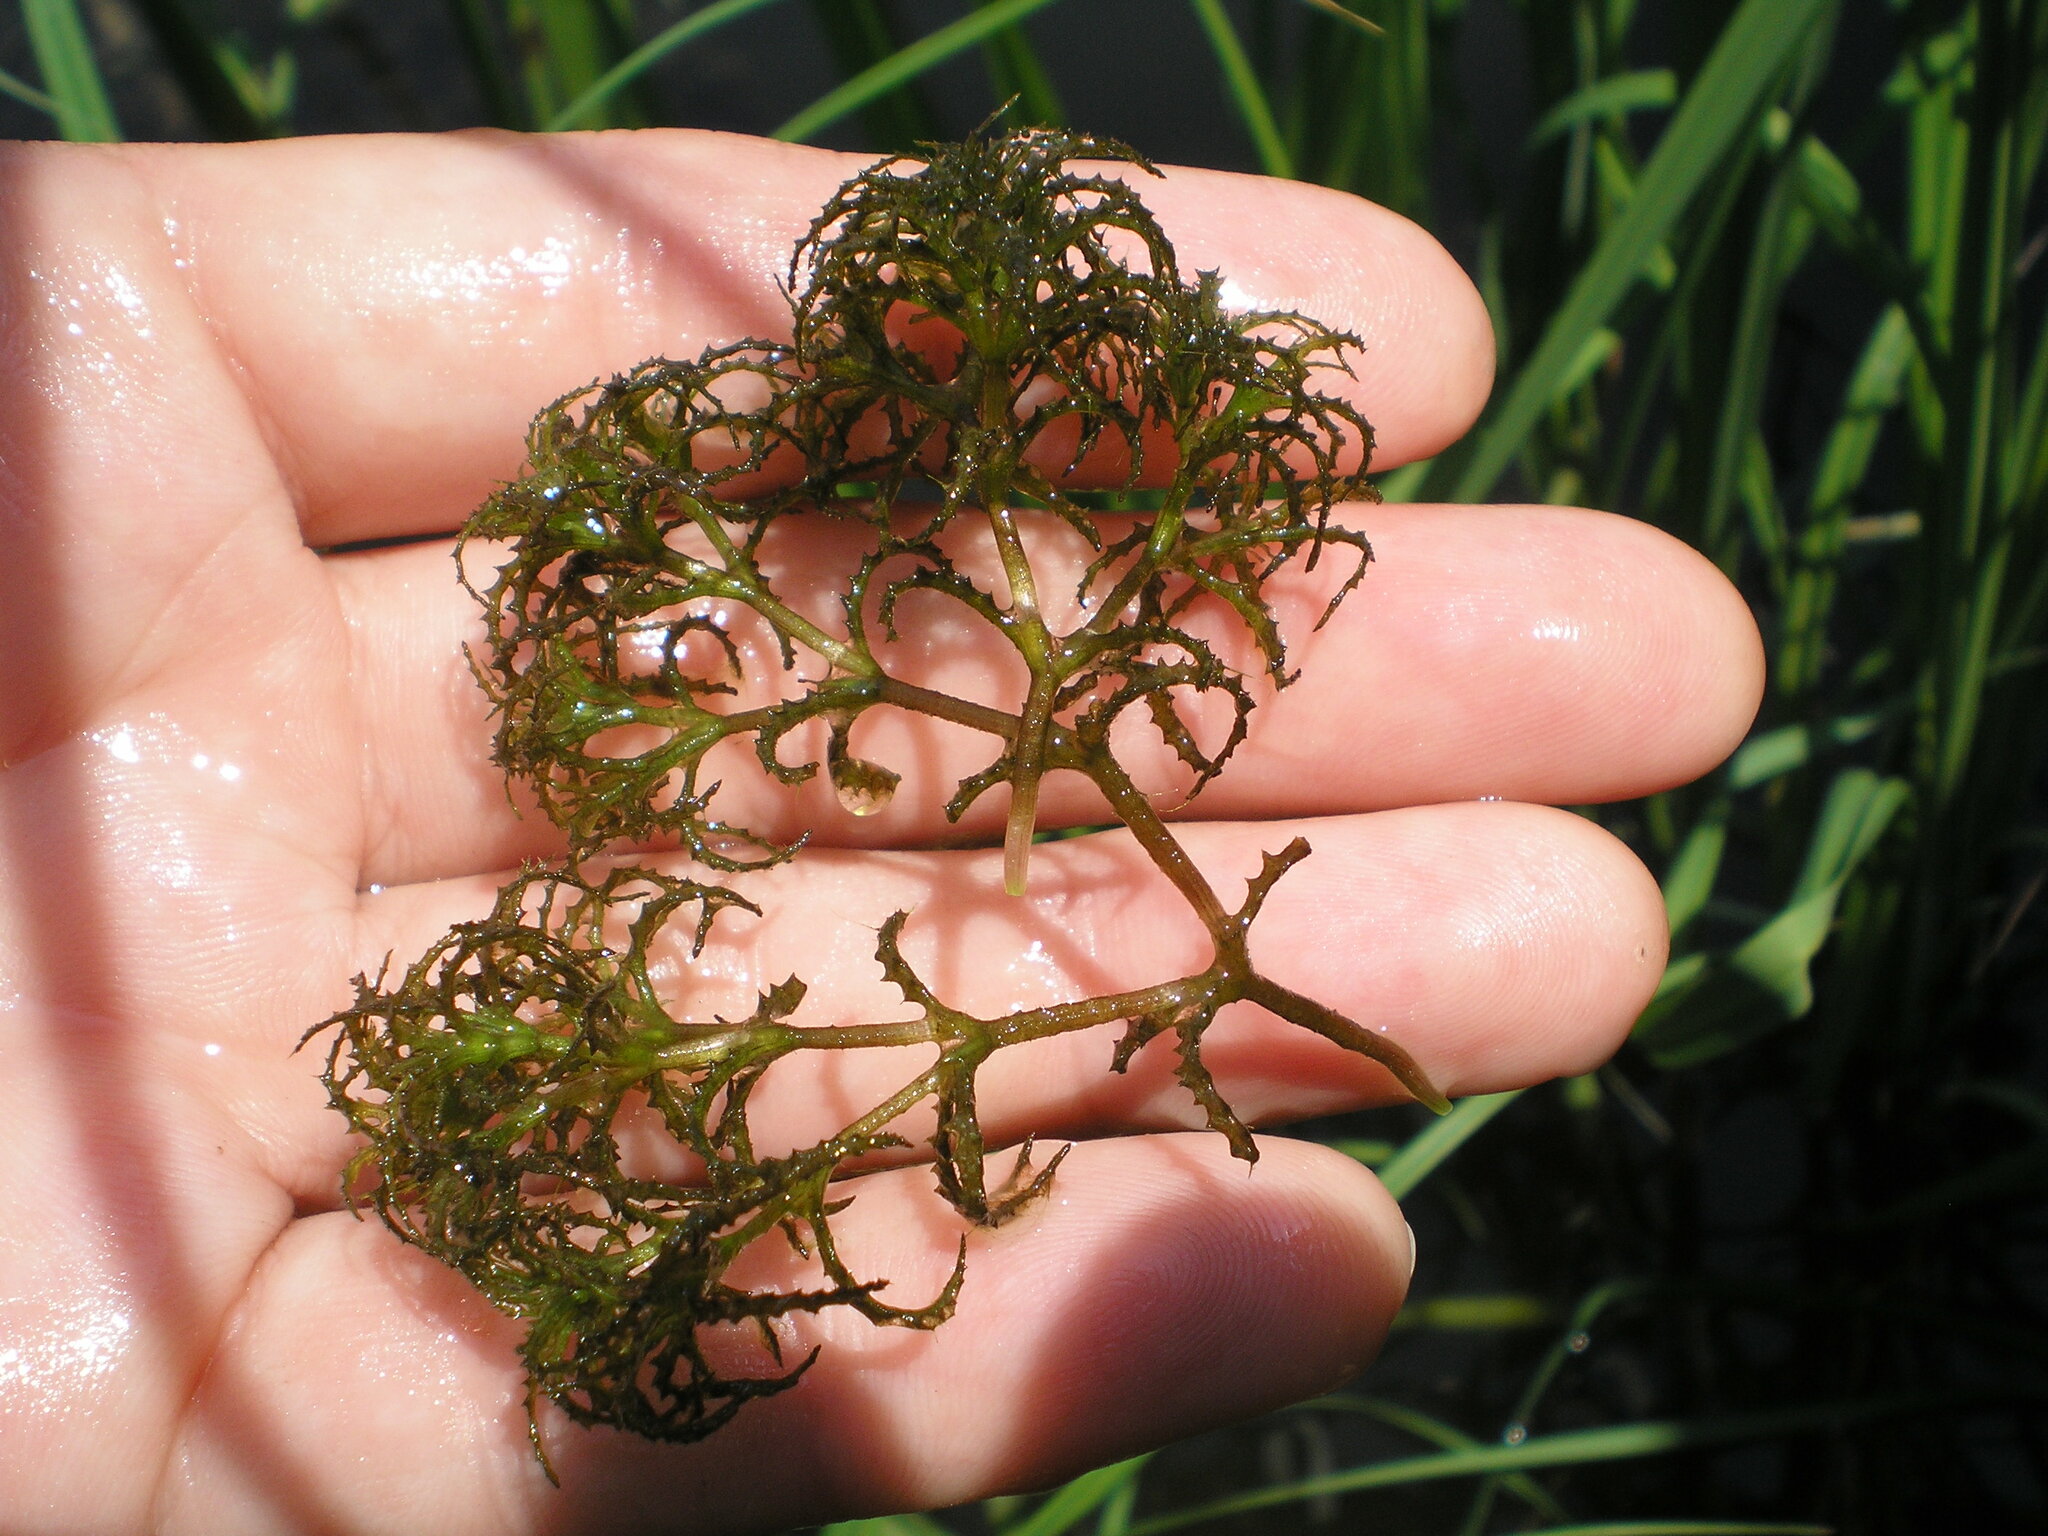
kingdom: Plantae
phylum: Tracheophyta
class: Liliopsida
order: Alismatales
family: Hydrocharitaceae
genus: Najas
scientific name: Najas minor
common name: Brittle naiad
